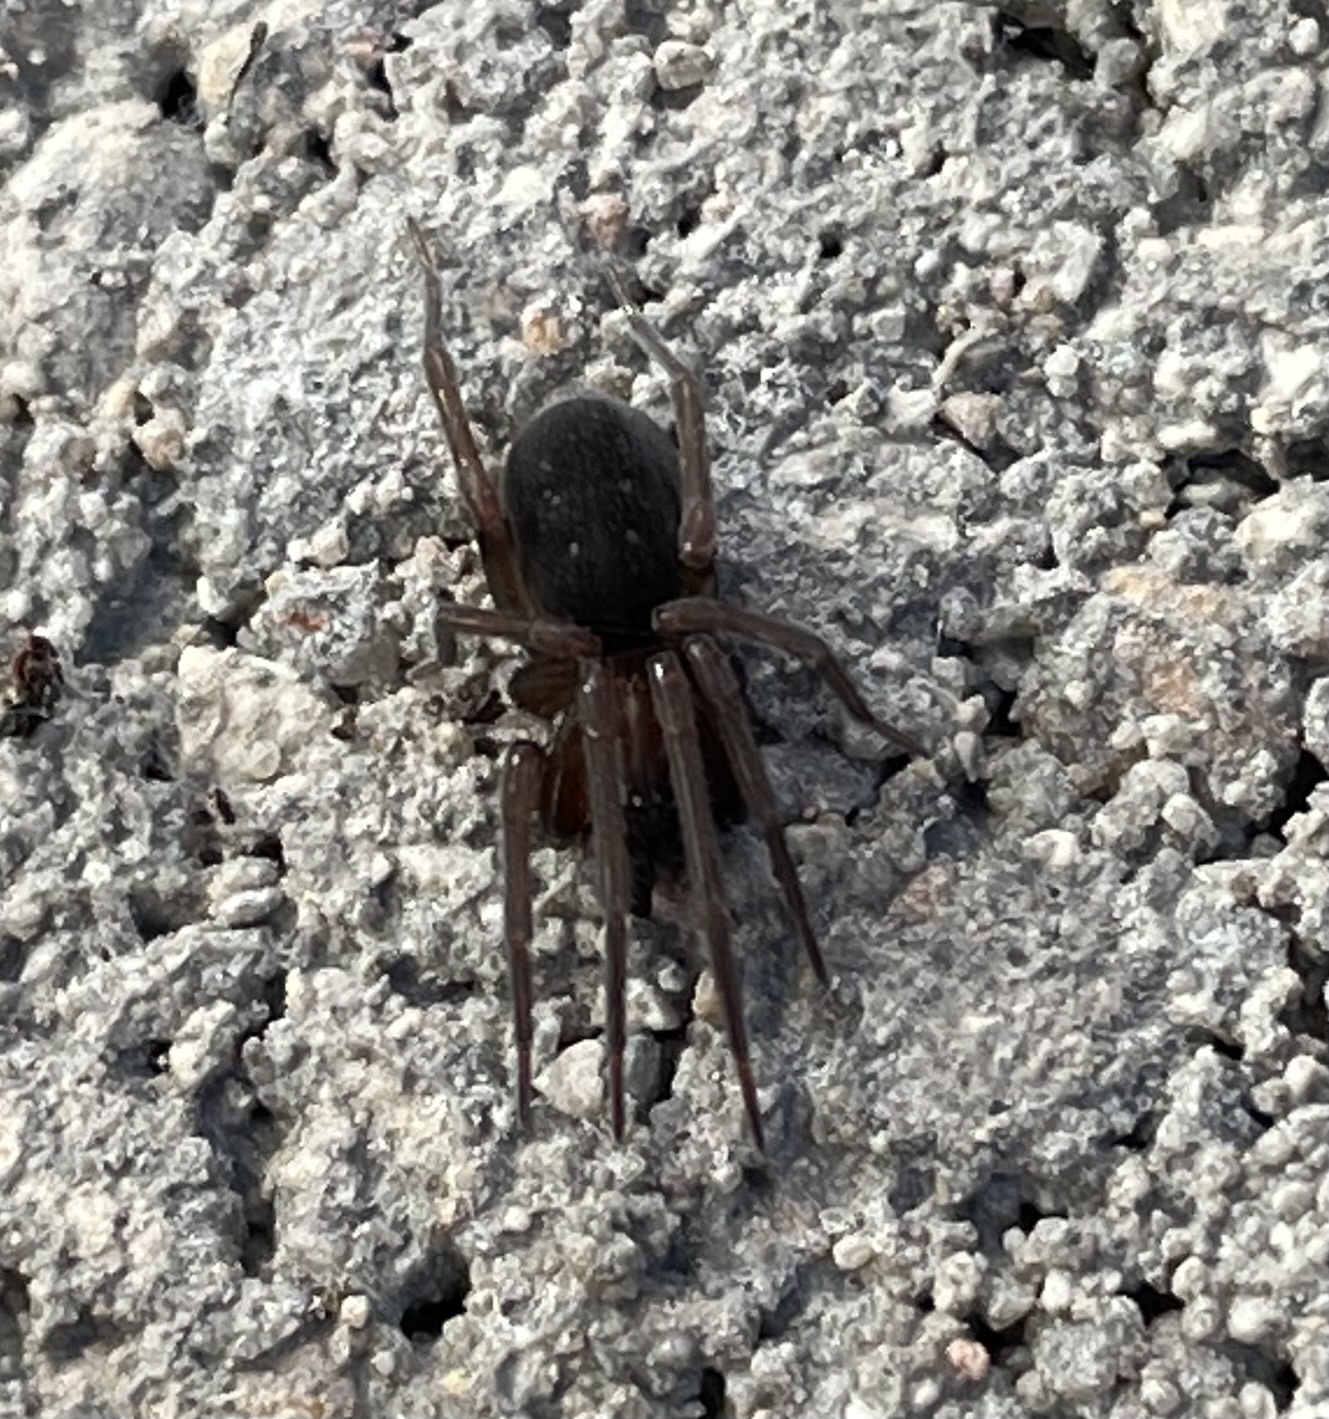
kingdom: Animalia
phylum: Arthropoda
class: Arachnida
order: Araneae
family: Desidae
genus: Metaltella
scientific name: Metaltella simoni
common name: Cribellate spider
